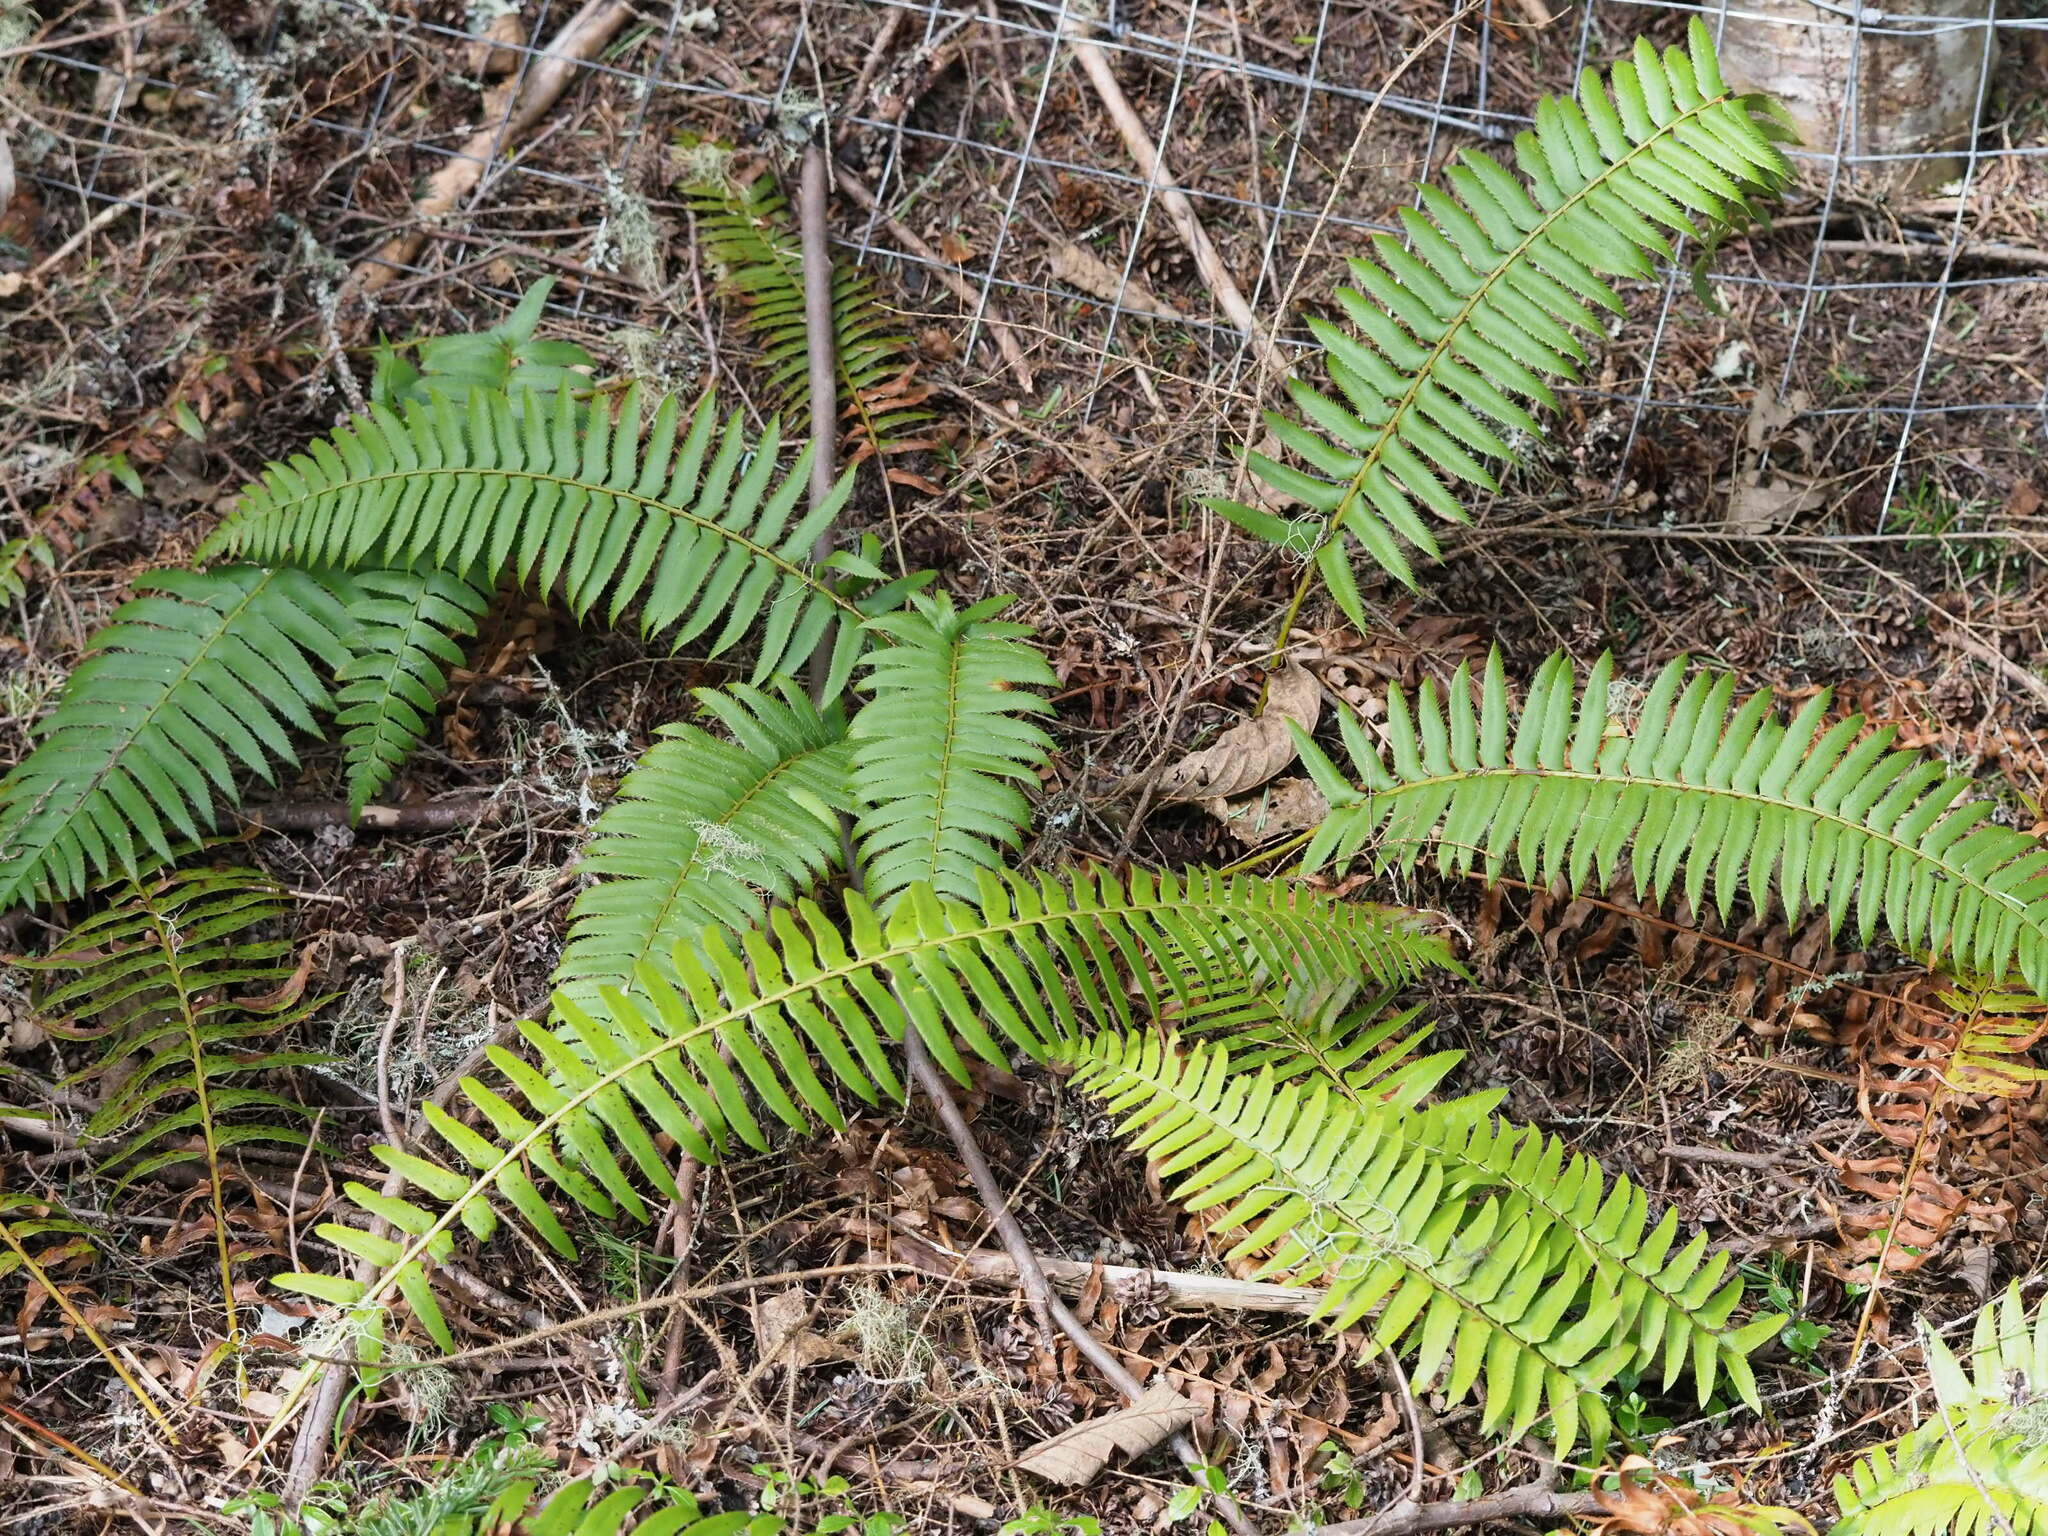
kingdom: Plantae
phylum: Tracheophyta
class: Polypodiopsida
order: Polypodiales
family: Dryopteridaceae
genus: Polystichum
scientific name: Polystichum munitum
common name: Western sword-fern
